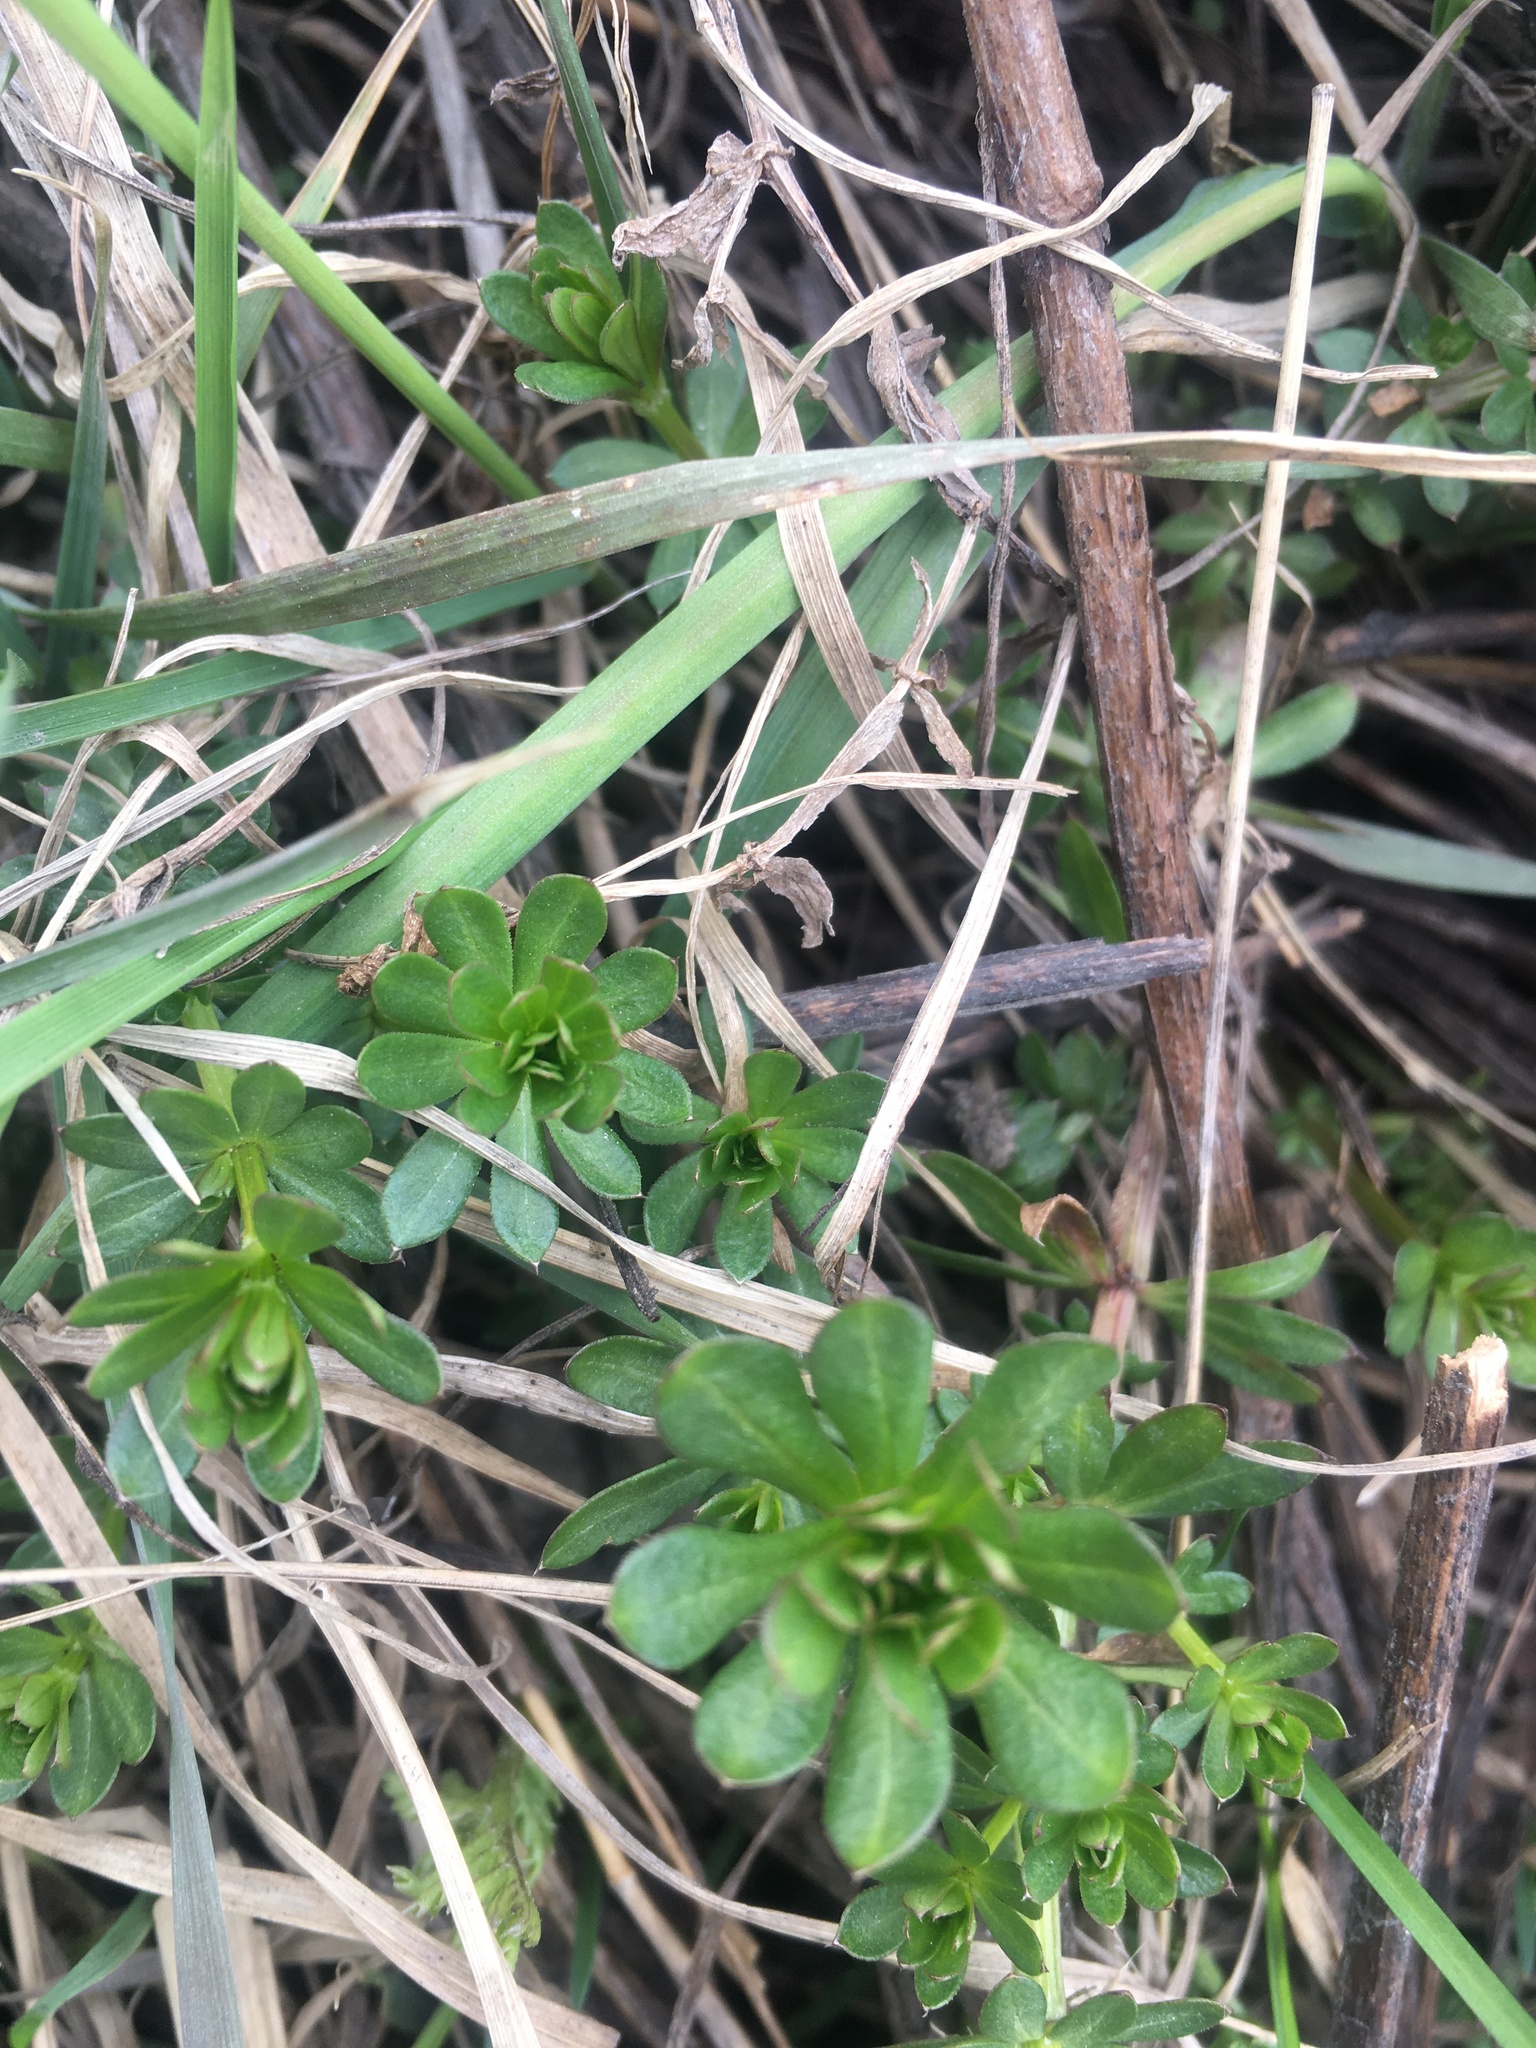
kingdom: Plantae
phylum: Tracheophyta
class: Magnoliopsida
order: Gentianales
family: Rubiaceae
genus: Galium
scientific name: Galium mollugo
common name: Hedge bedstraw
